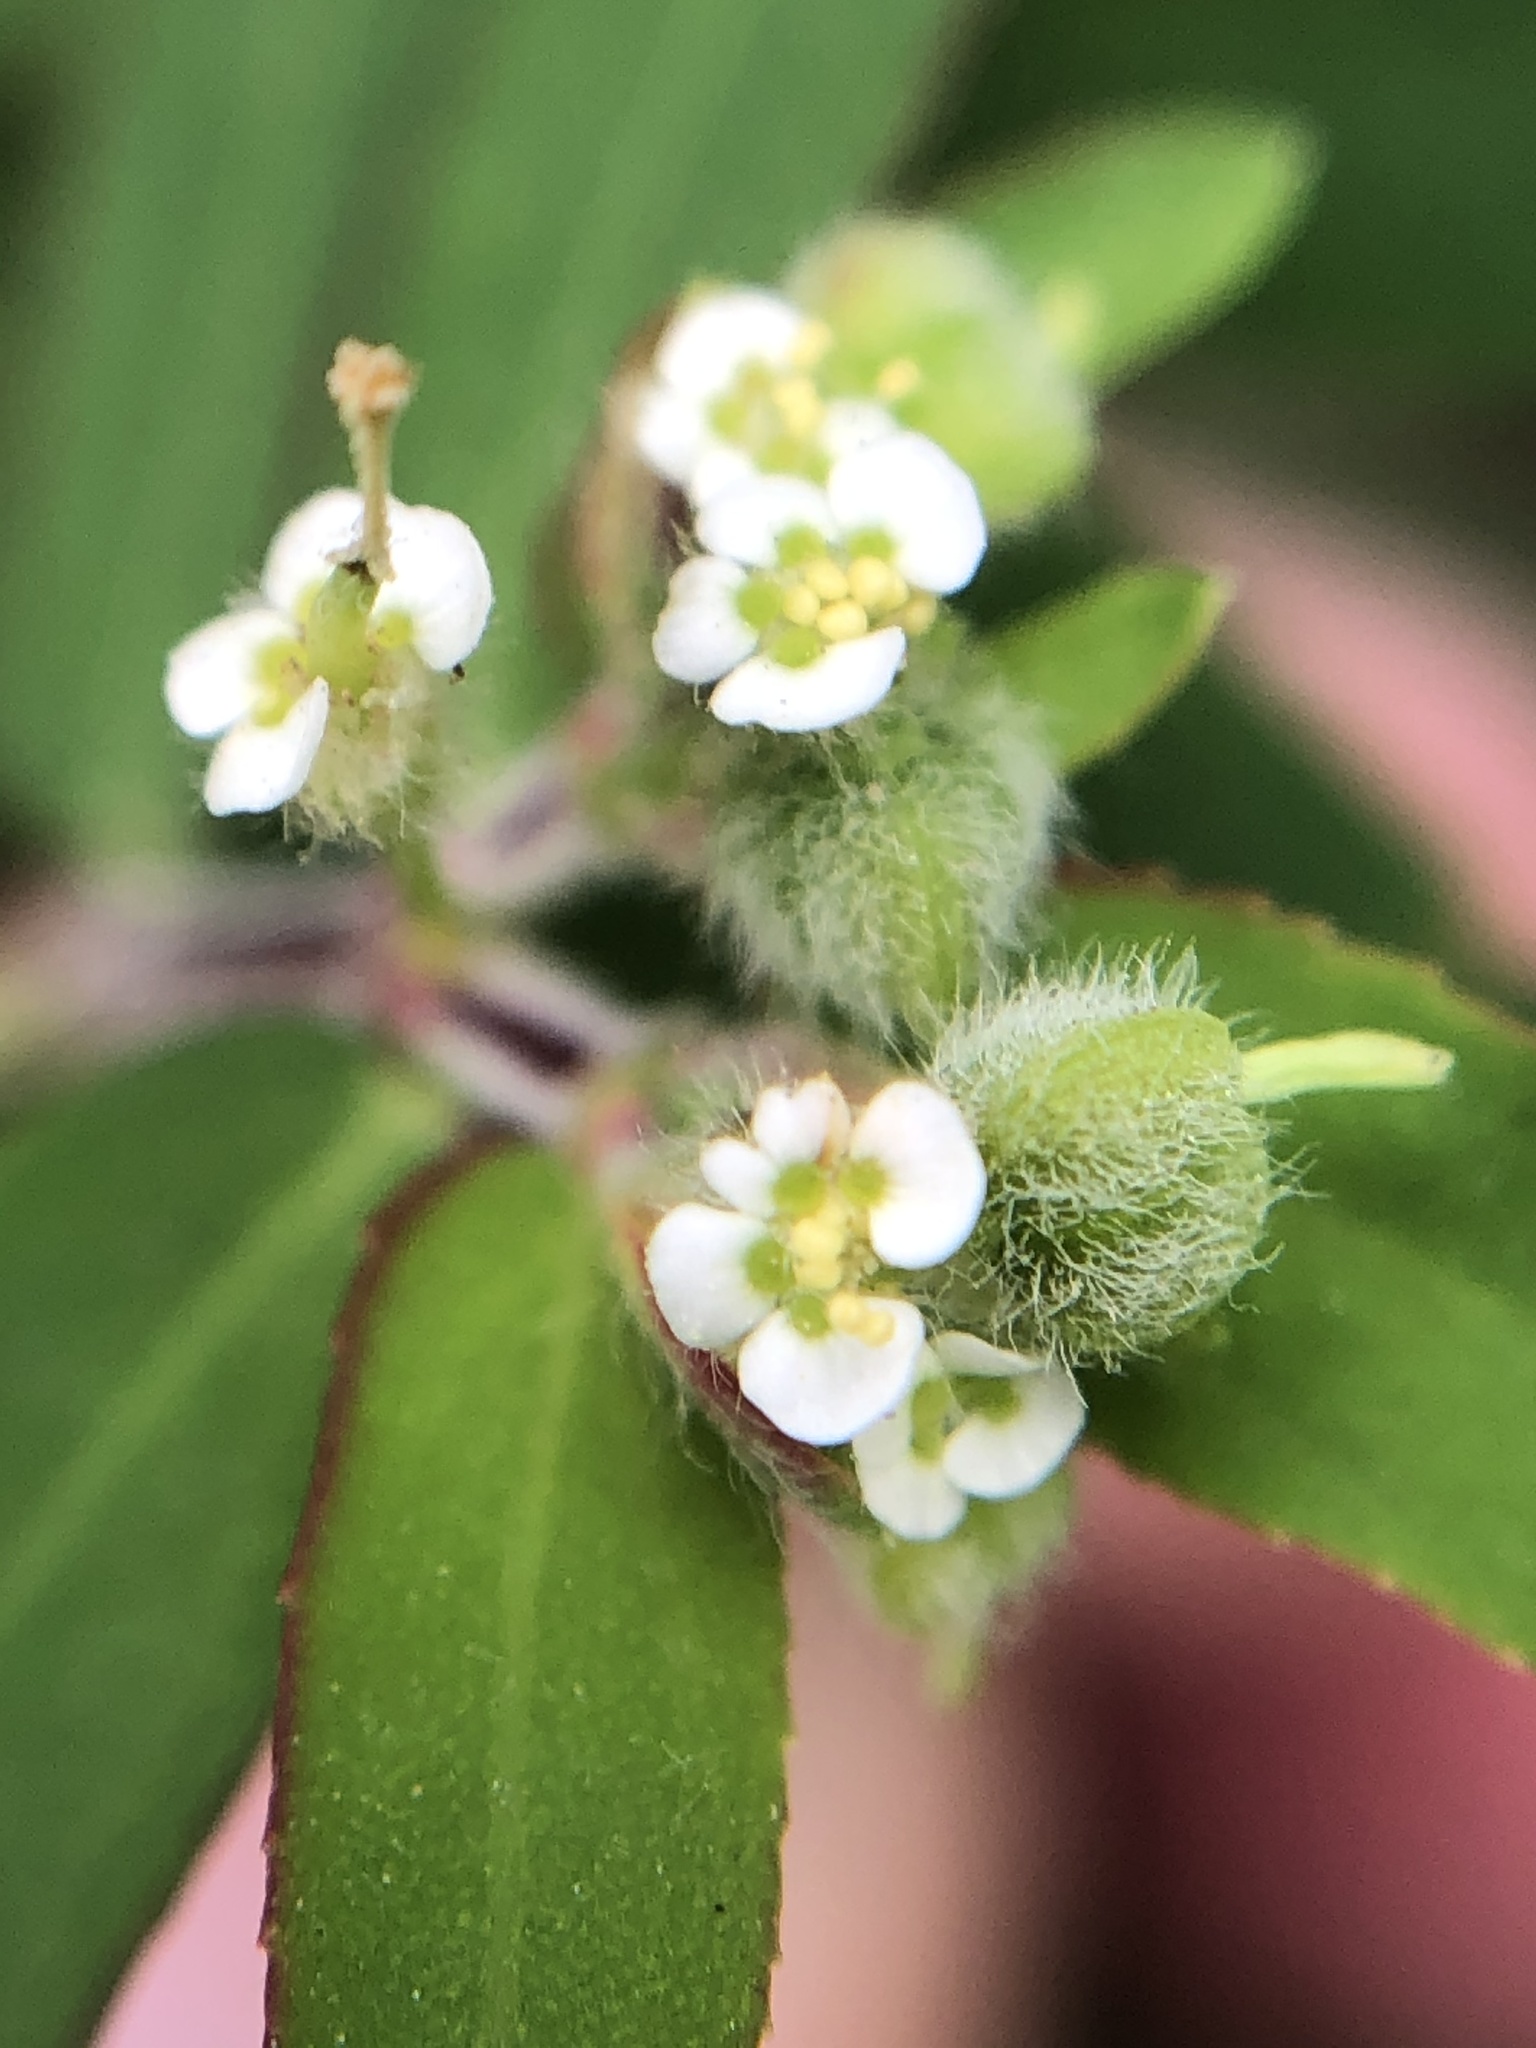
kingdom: Plantae
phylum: Tracheophyta
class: Magnoliopsida
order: Malpighiales
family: Euphorbiaceae
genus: Euphorbia
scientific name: Euphorbia lasiocarpa
